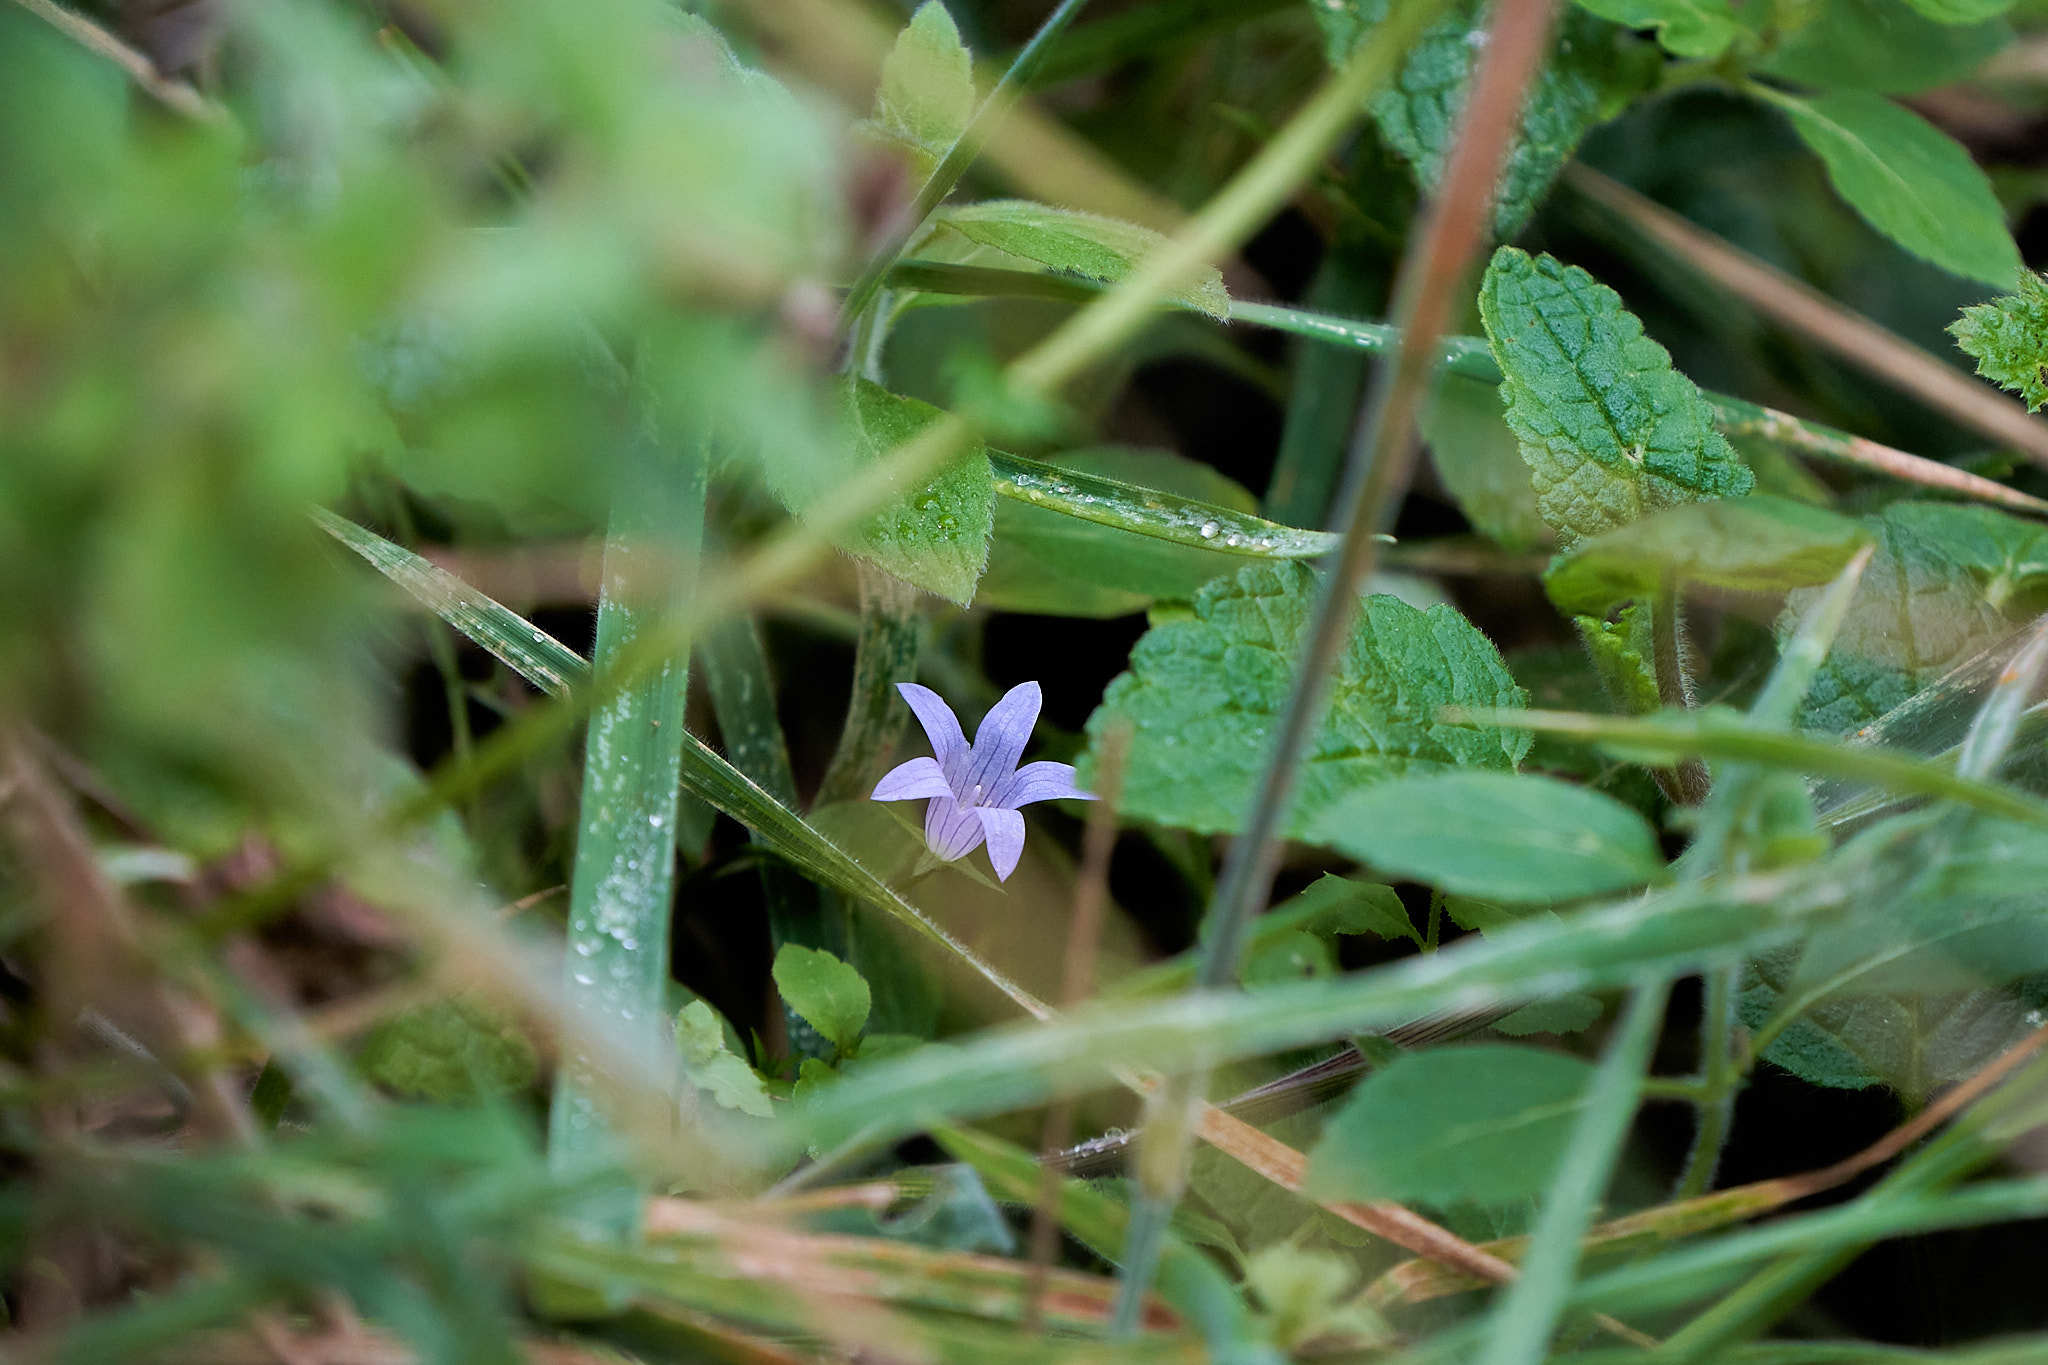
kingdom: Plantae
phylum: Tracheophyta
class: Magnoliopsida
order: Asterales
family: Campanulaceae
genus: Eastwoodiella
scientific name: Eastwoodiella californica
